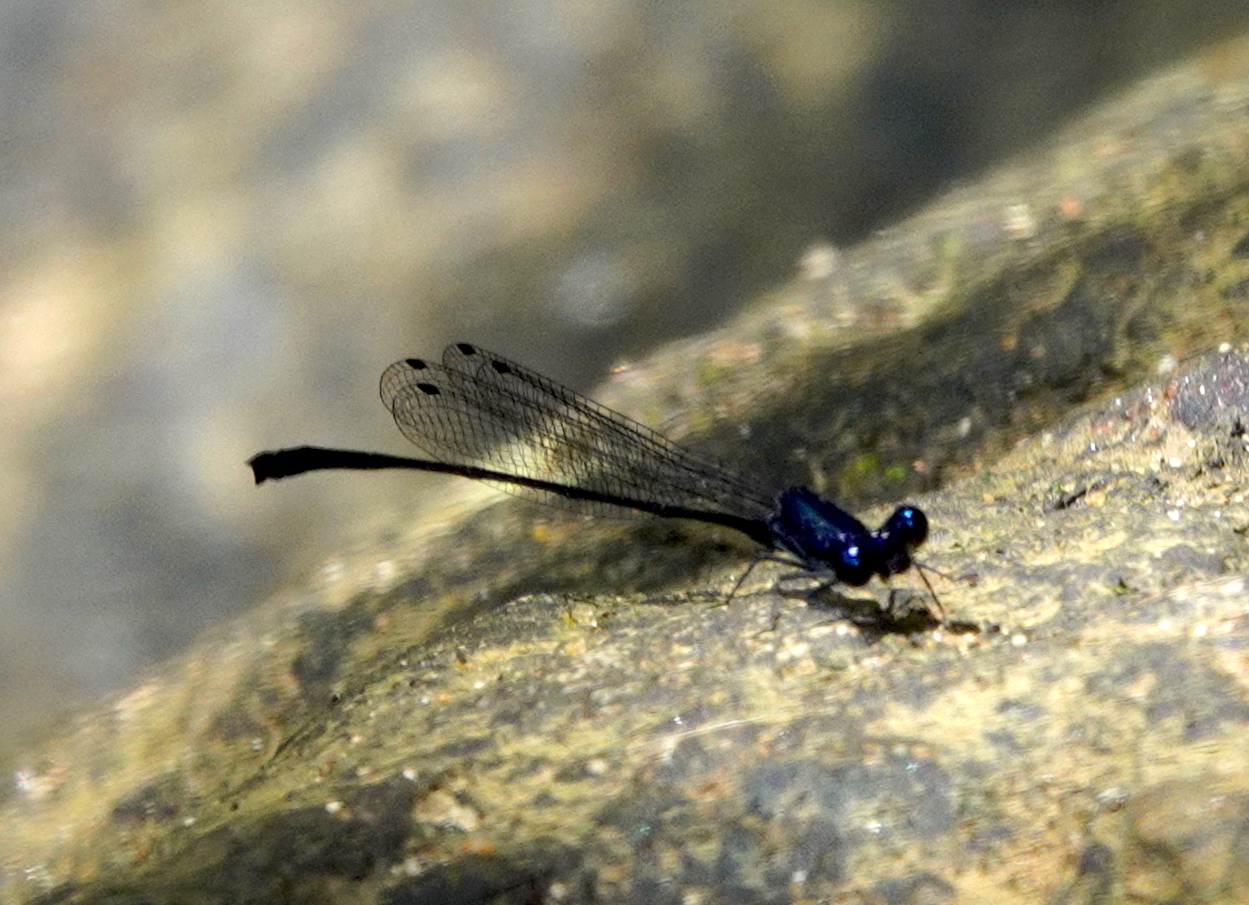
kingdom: Animalia
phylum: Arthropoda
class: Insecta
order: Odonata
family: Platycnemididae
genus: Elattoneura
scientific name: Elattoneura centralis
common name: Dark-glittering threadtail
